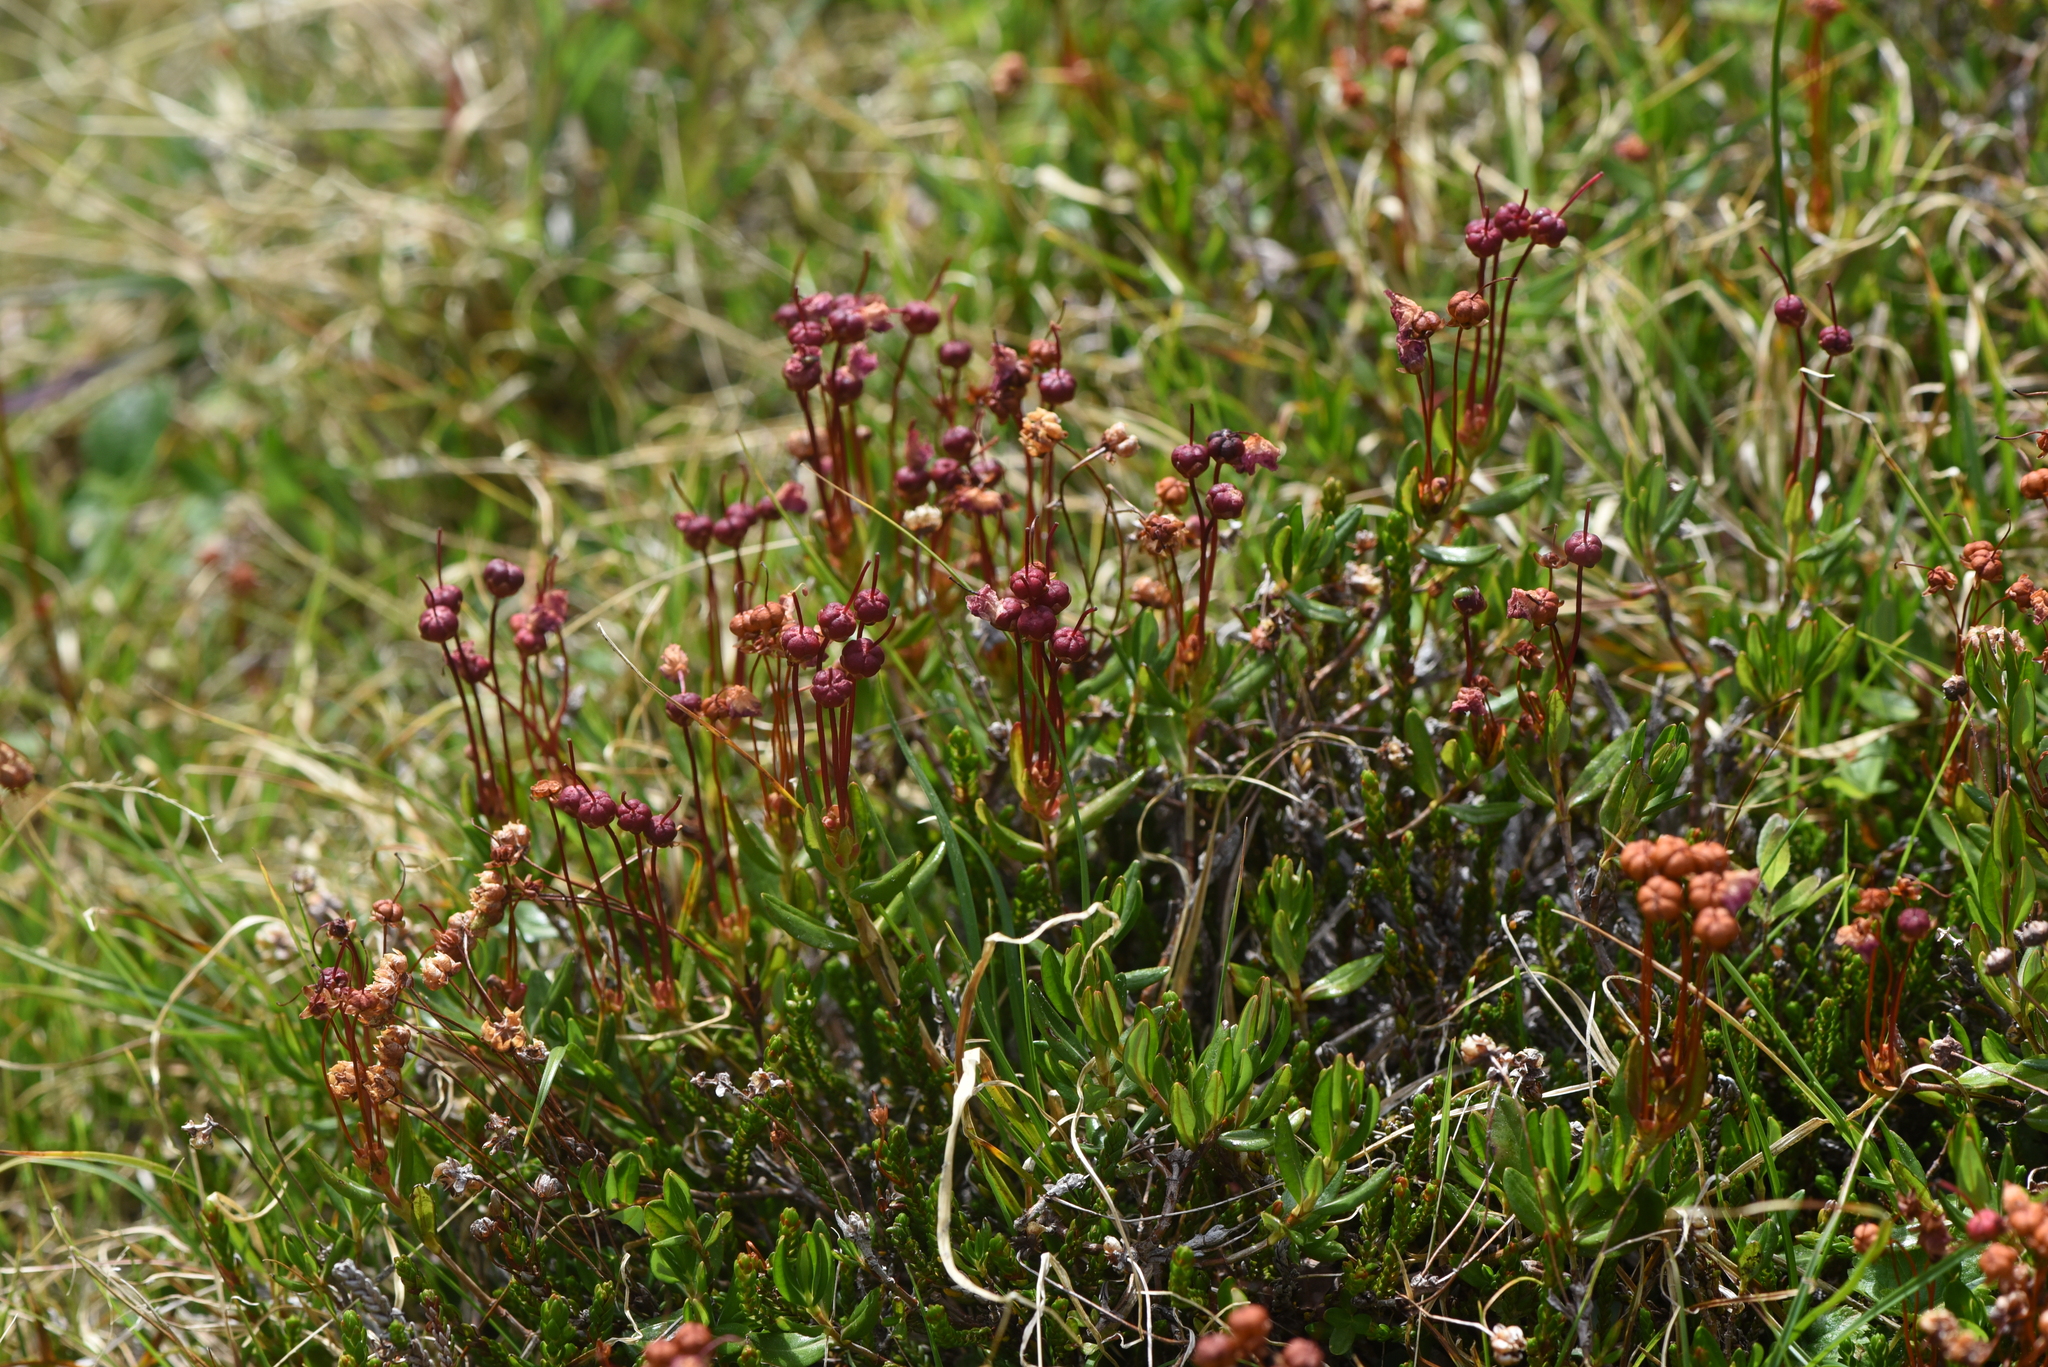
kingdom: Plantae
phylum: Tracheophyta
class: Magnoliopsida
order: Ericales
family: Ericaceae
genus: Kalmia
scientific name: Kalmia microphylla
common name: Alpine bog laurel
